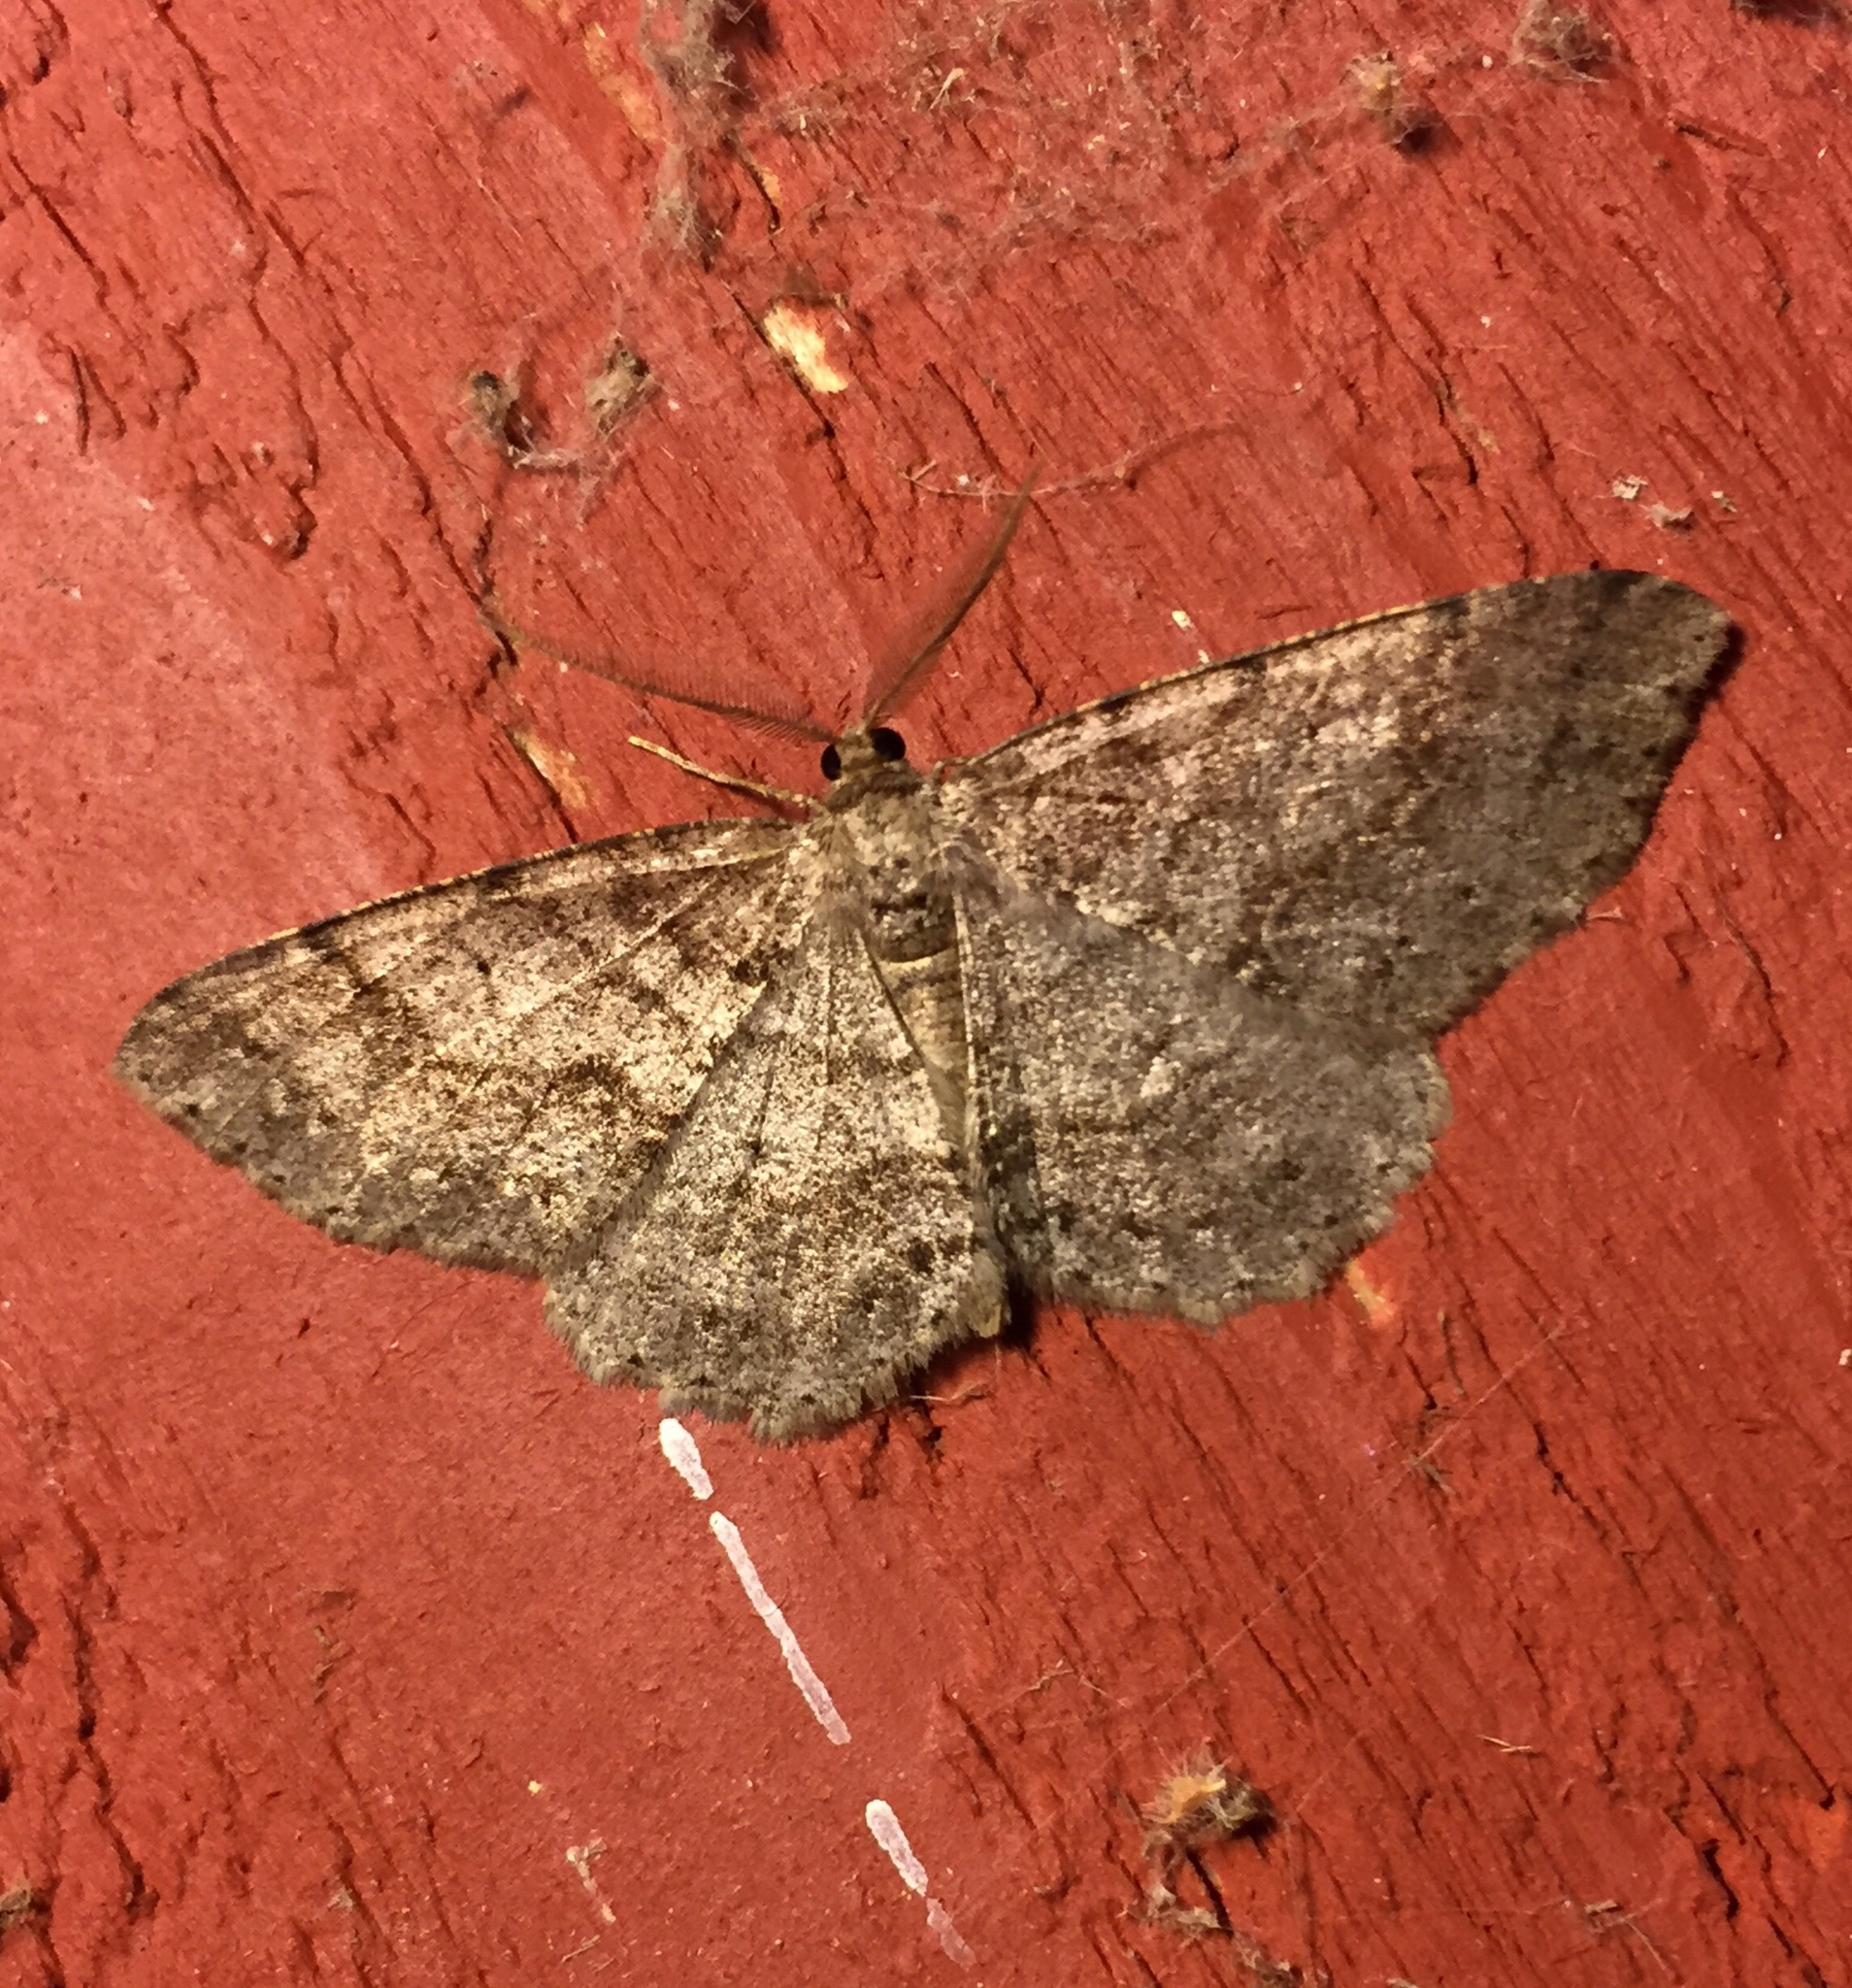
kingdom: Animalia
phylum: Arthropoda
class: Insecta
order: Lepidoptera
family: Geometridae
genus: Melanolophia
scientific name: Melanolophia imitata
